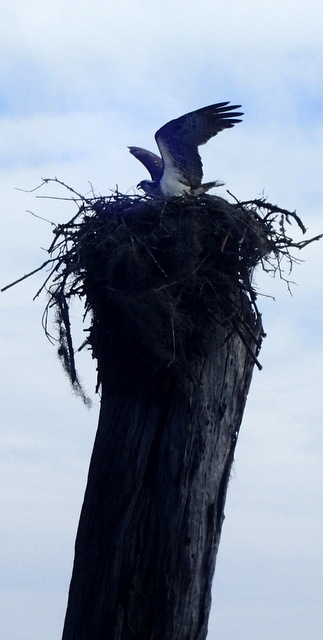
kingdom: Animalia
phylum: Chordata
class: Aves
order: Accipitriformes
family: Pandionidae
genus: Pandion
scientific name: Pandion haliaetus
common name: Osprey
